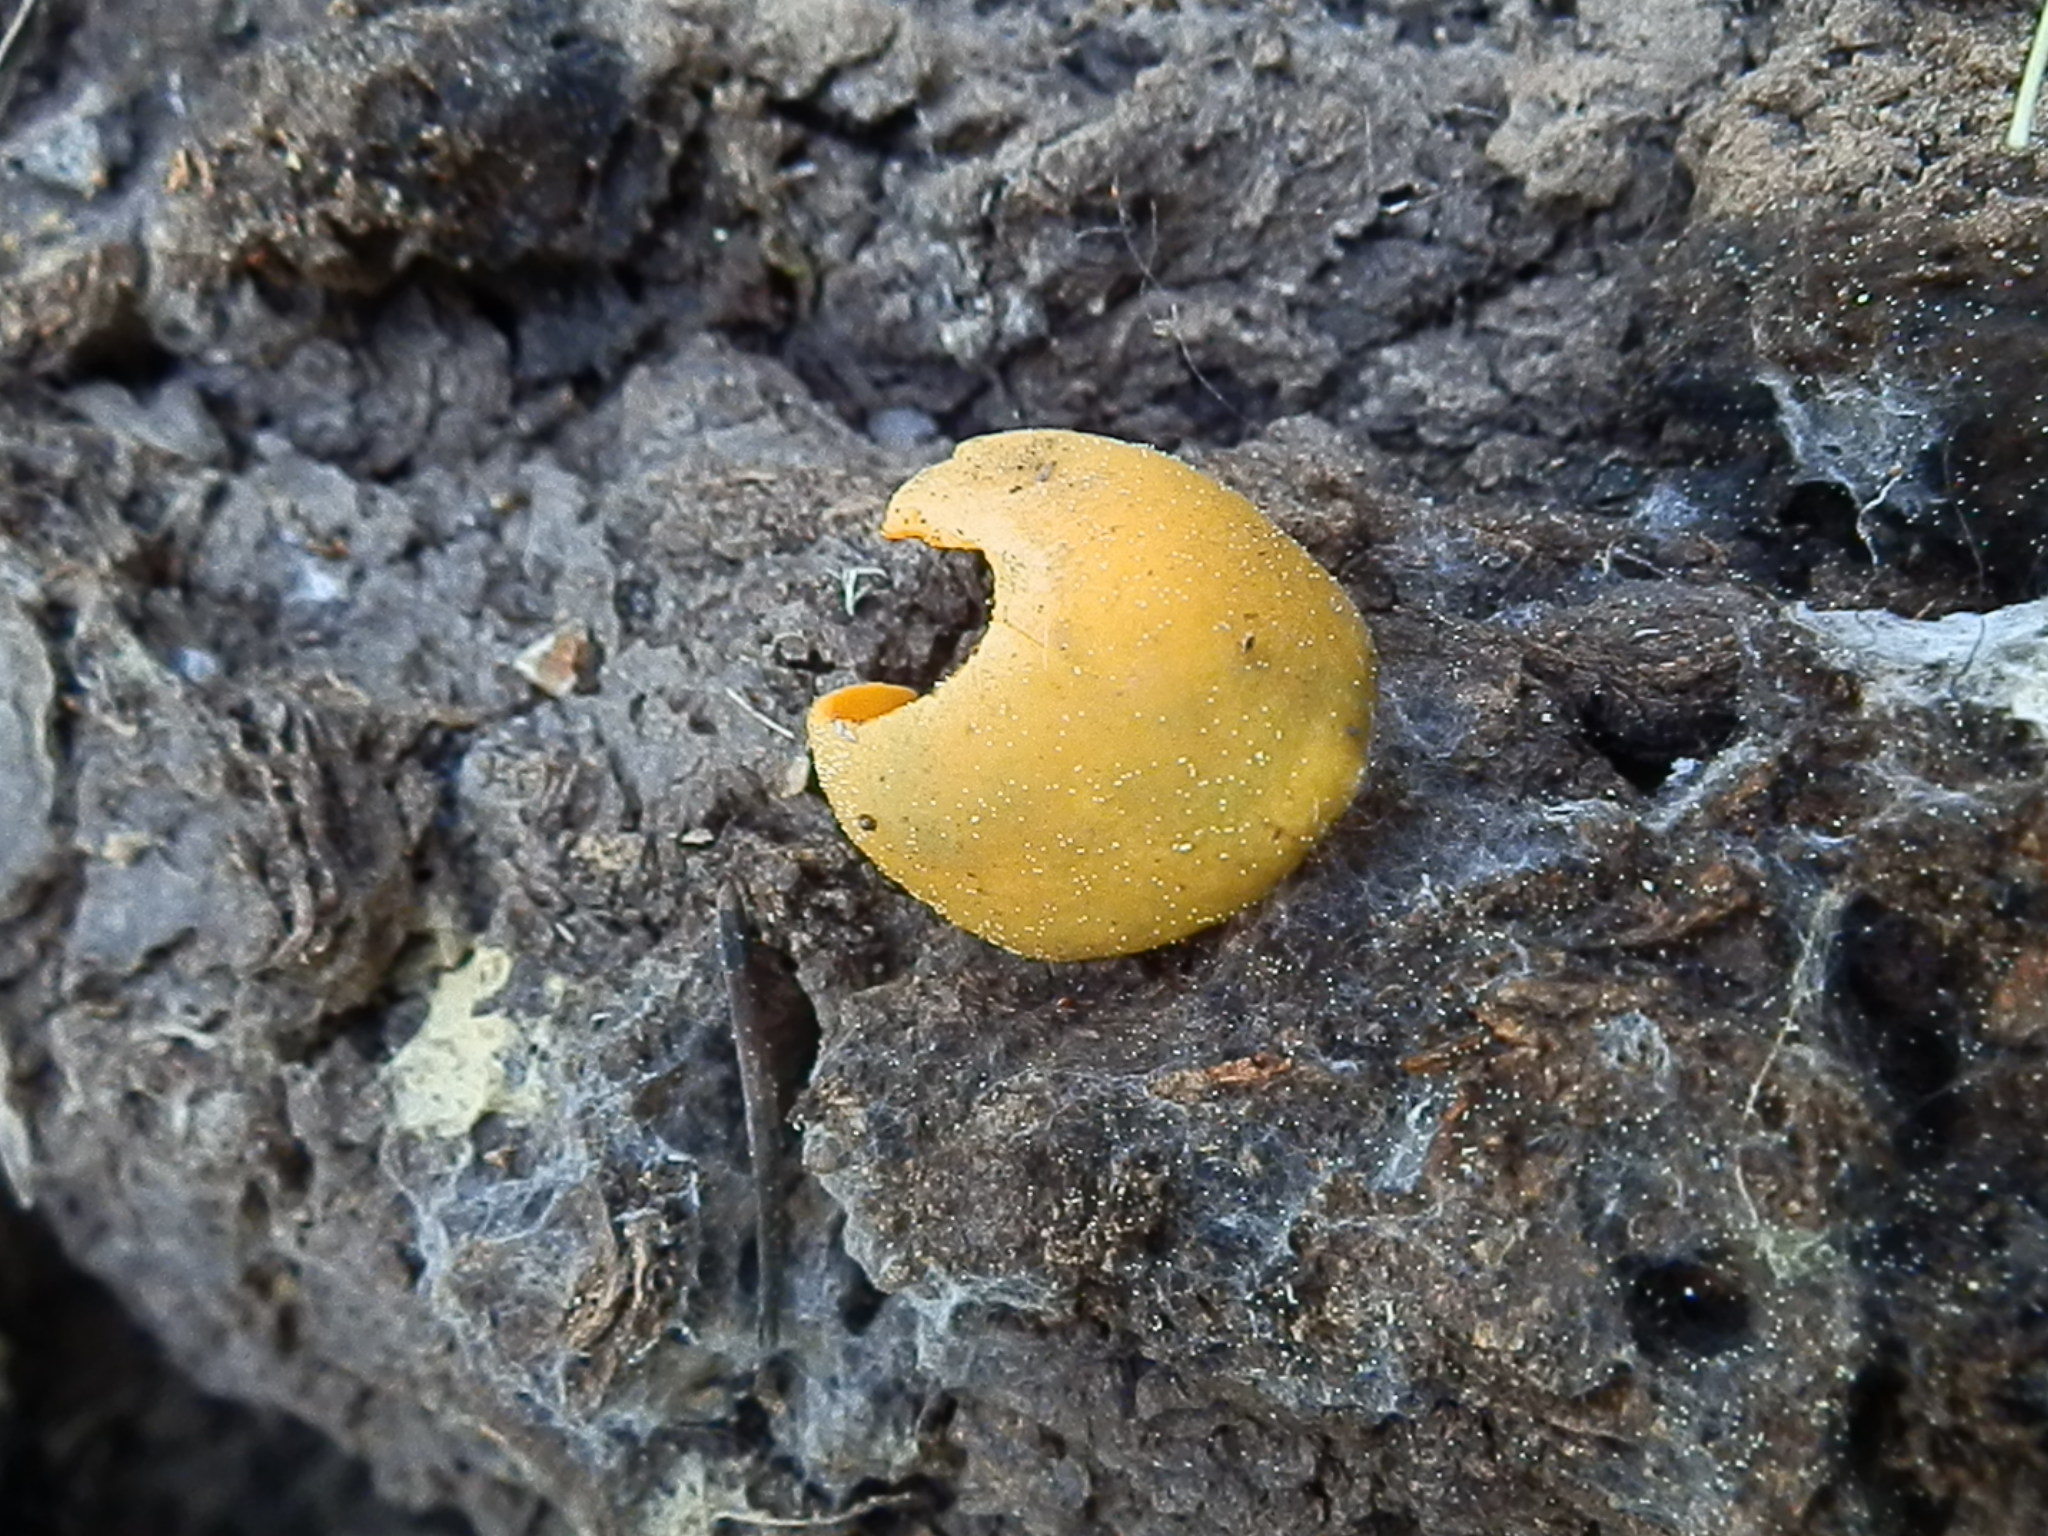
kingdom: Fungi
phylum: Ascomycota
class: Pezizomycetes
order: Pezizales
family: Caloscyphaceae
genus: Caloscypha
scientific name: Caloscypha fulgens
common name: Golden cup
